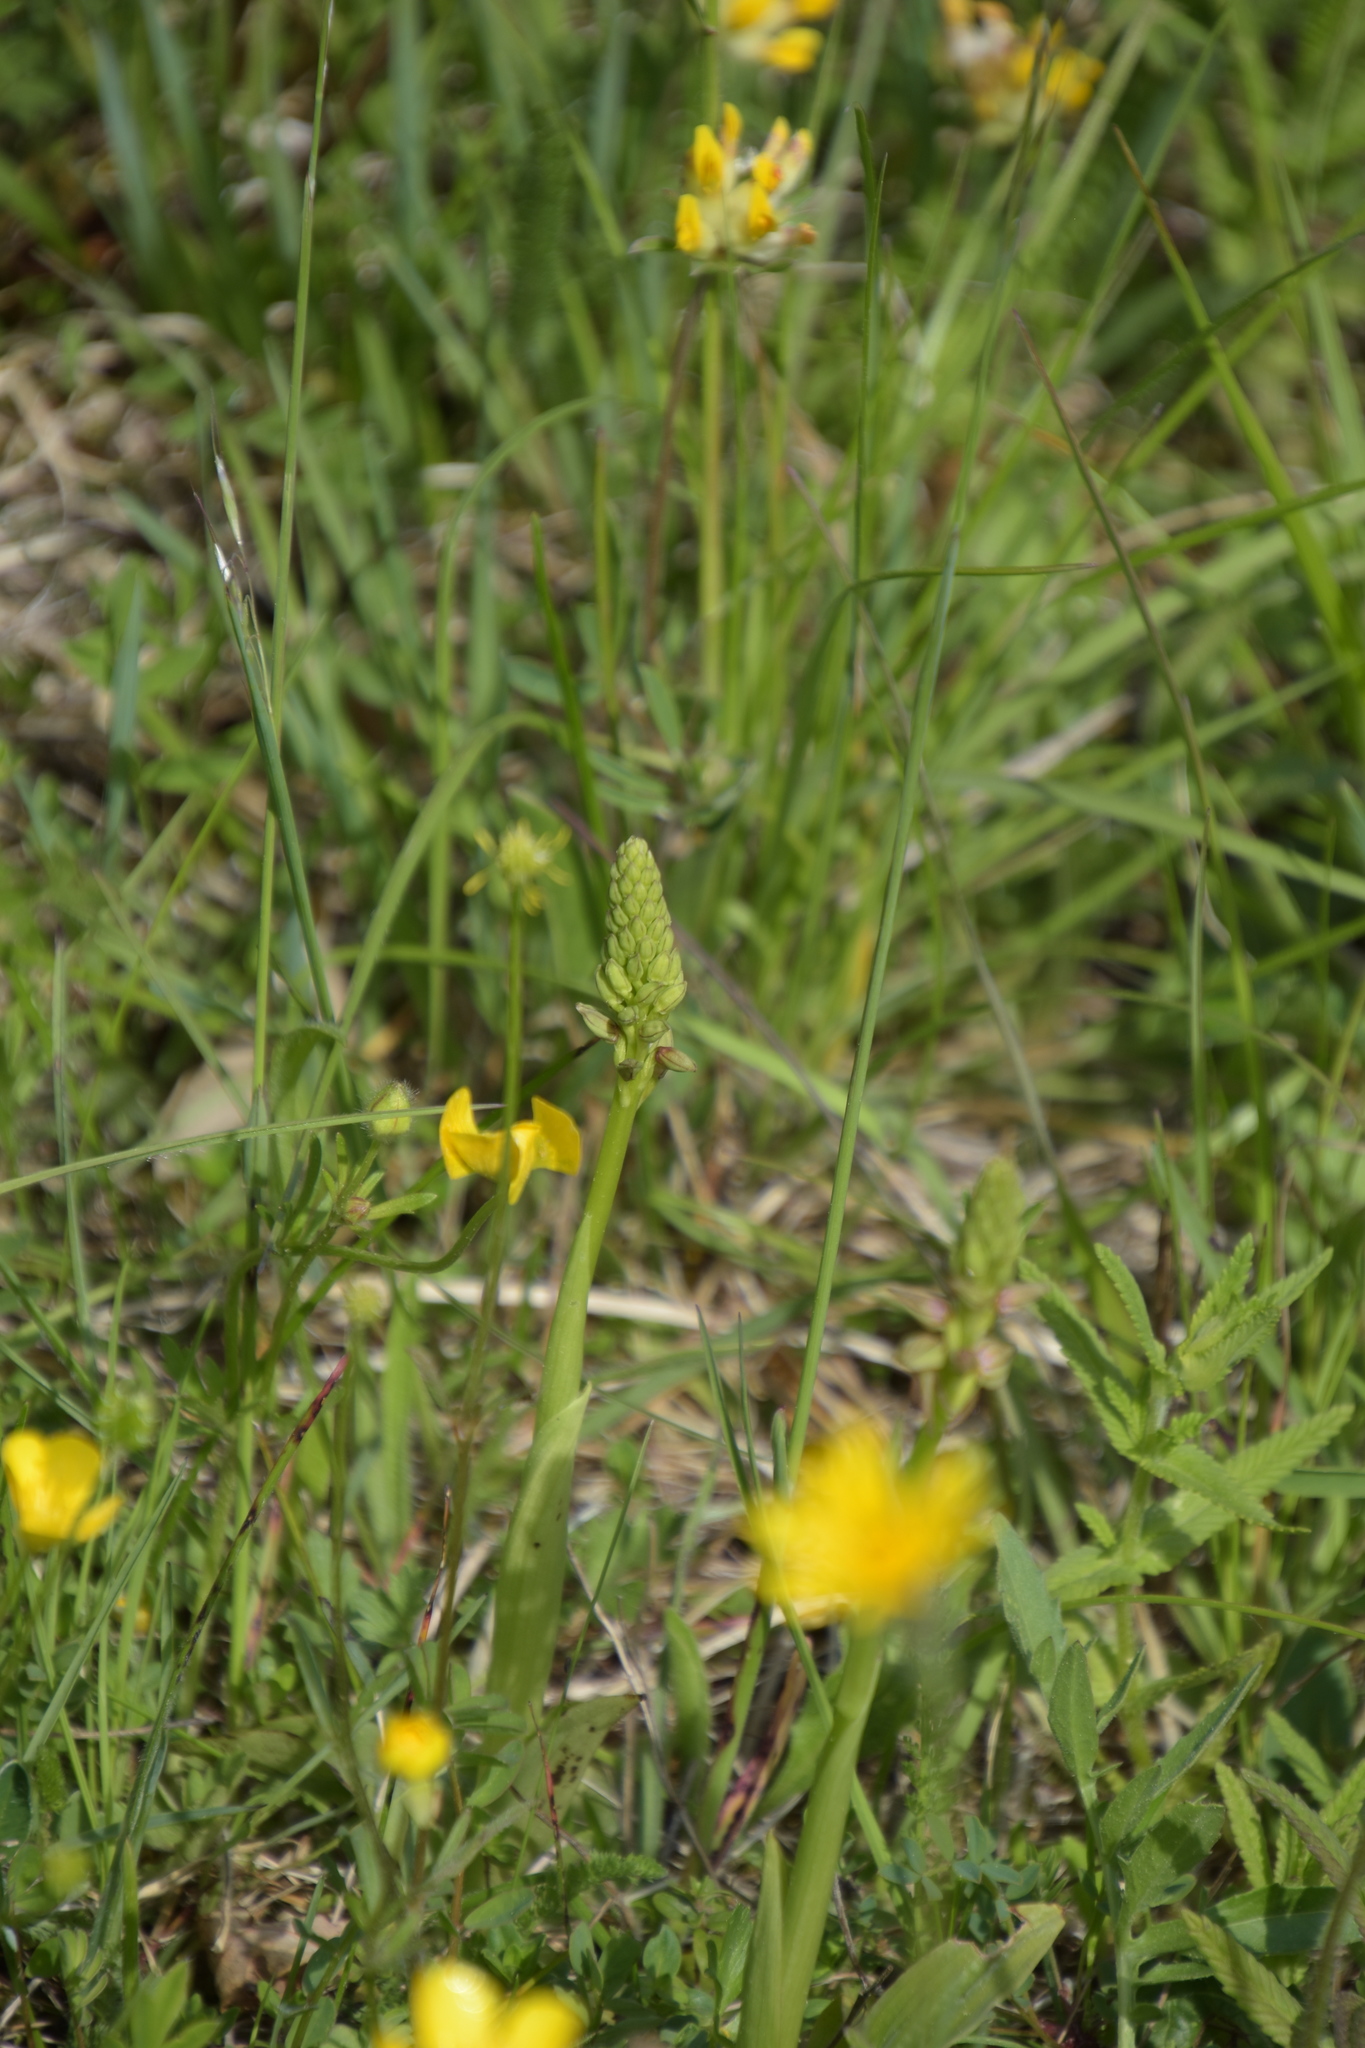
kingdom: Plantae
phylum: Tracheophyta
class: Liliopsida
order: Asparagales
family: Orchidaceae
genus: Orchis
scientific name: Orchis anthropophora
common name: Man orchid
